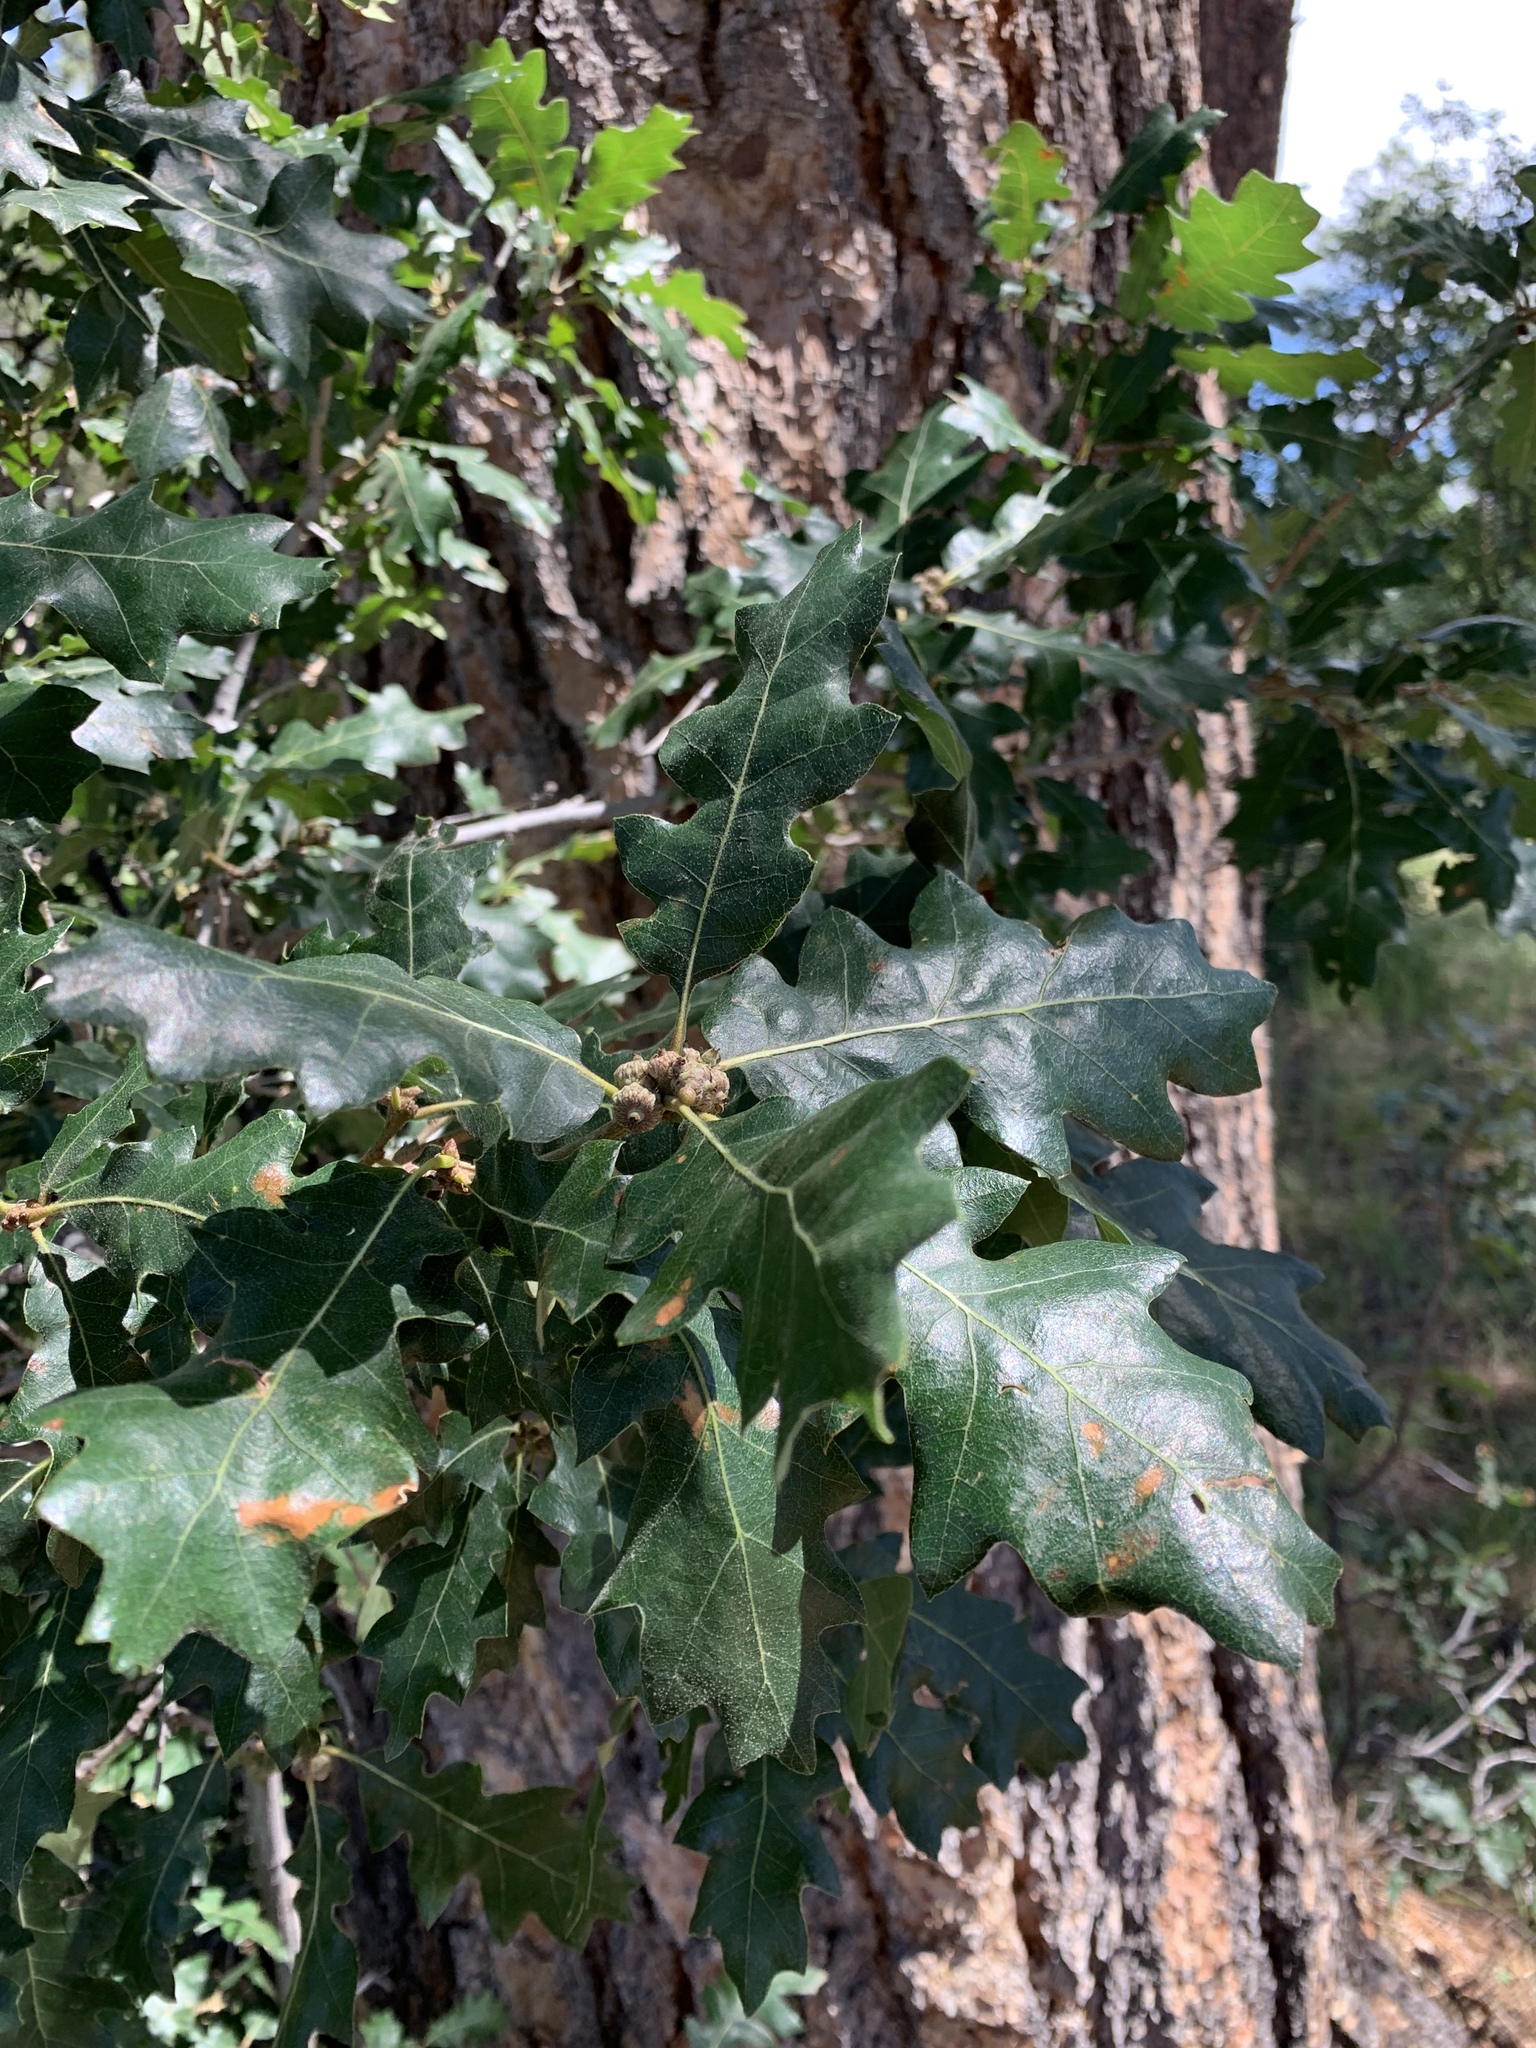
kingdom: Plantae
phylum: Tracheophyta
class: Magnoliopsida
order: Fagales
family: Fagaceae
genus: Quercus
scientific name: Quercus gambelii
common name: Gambel oak
